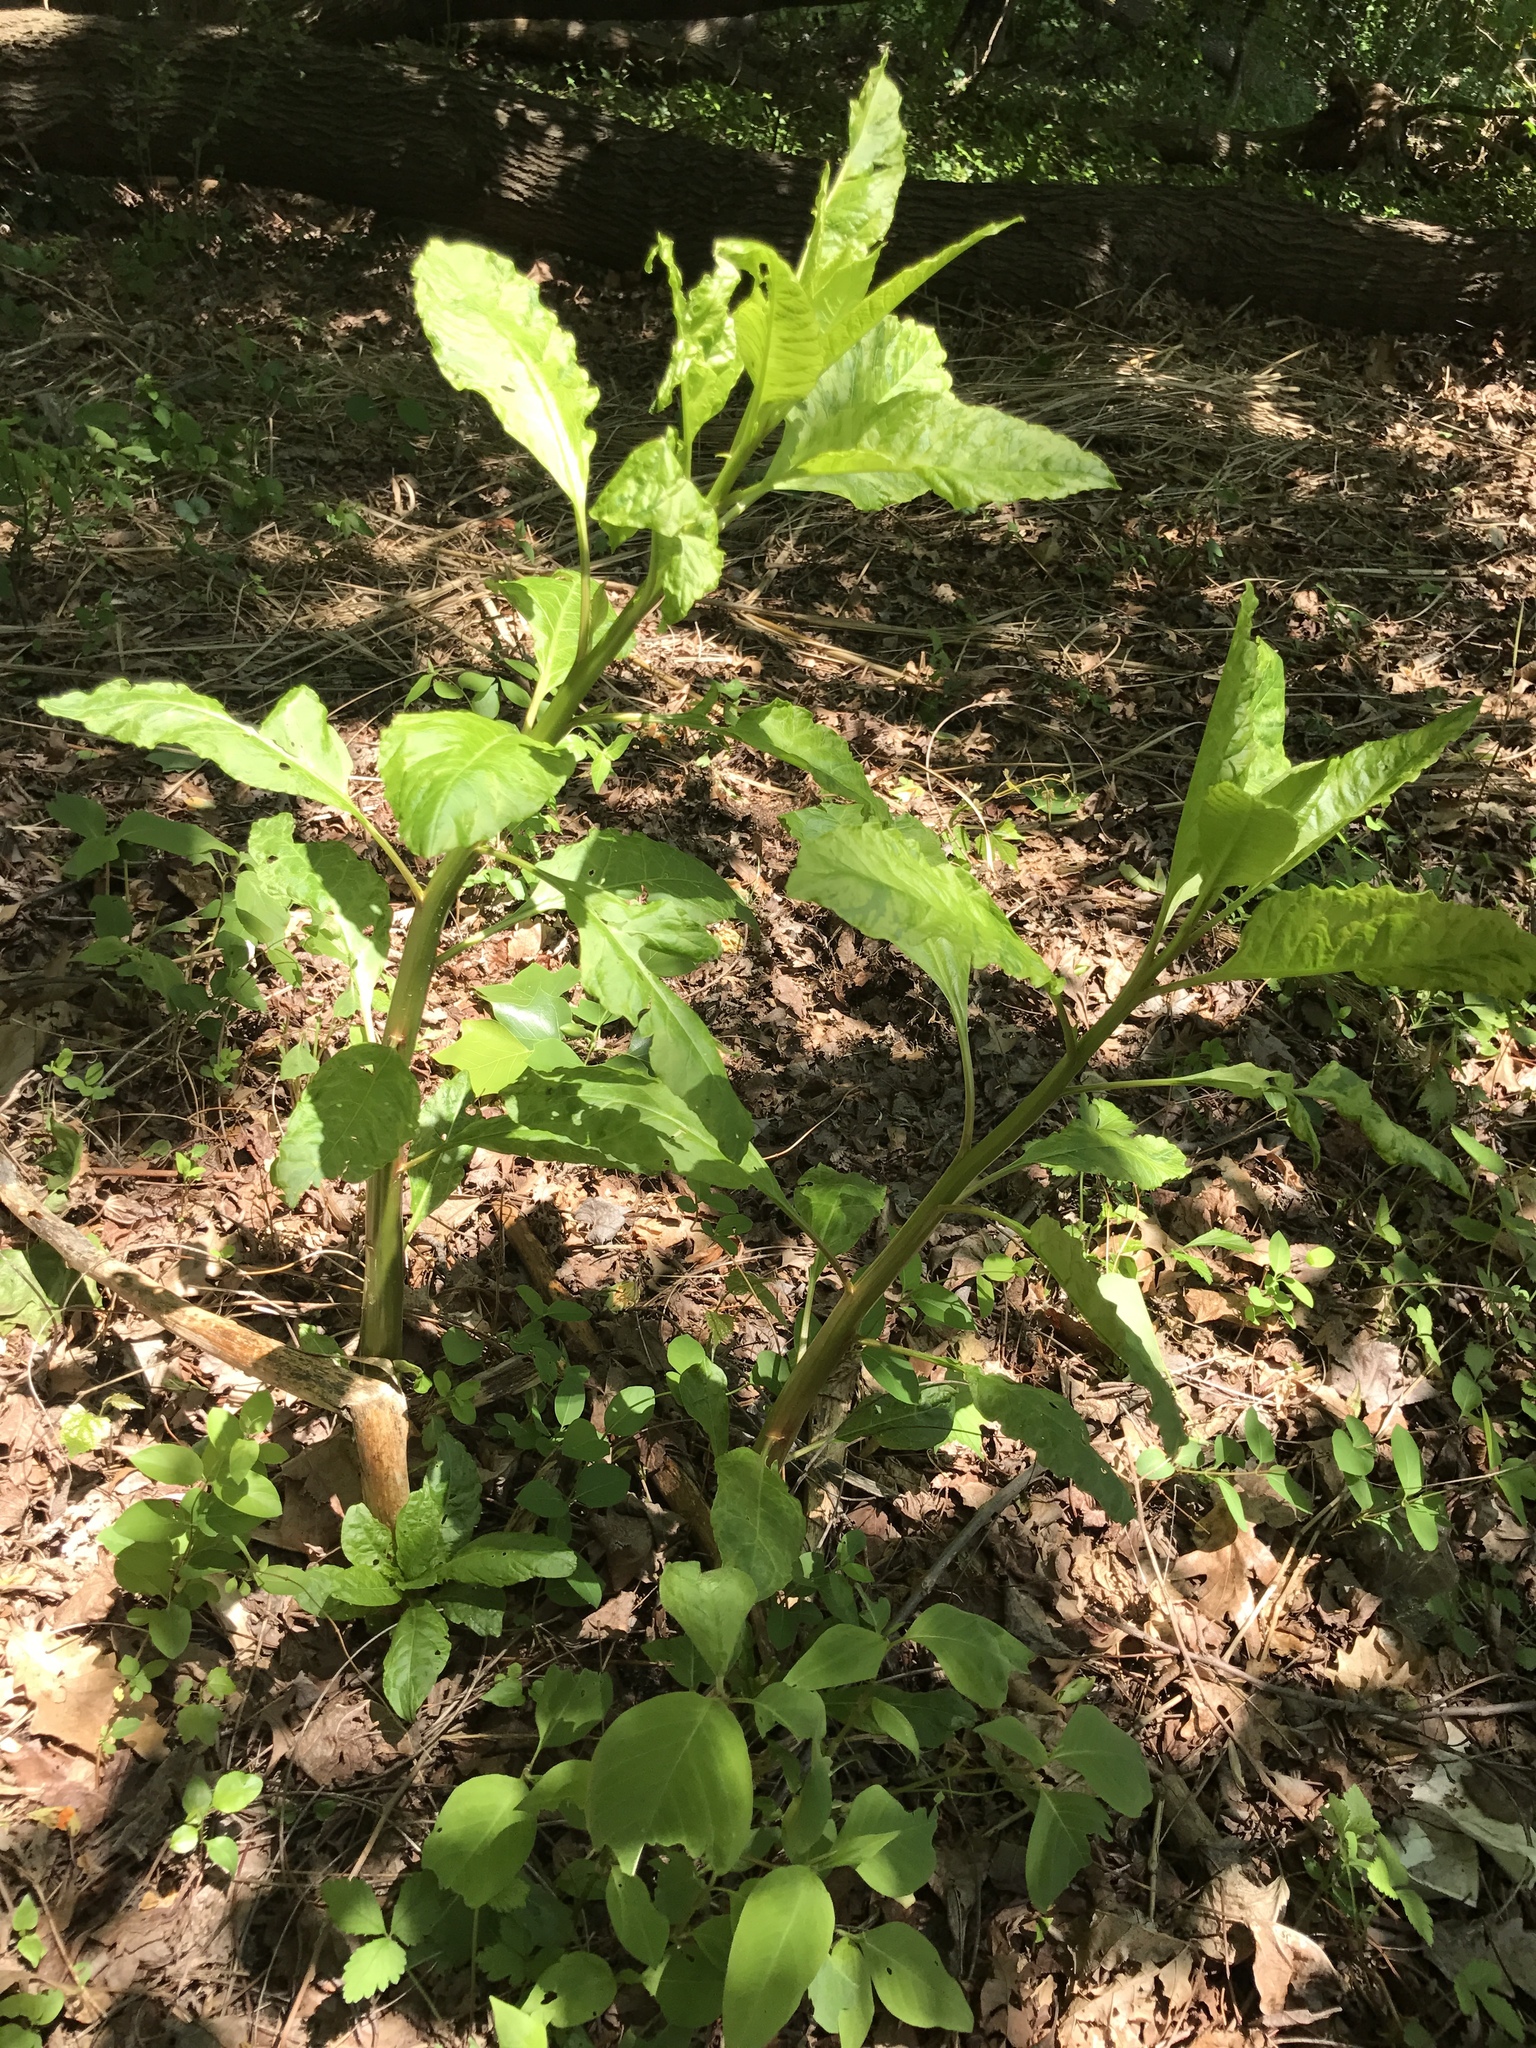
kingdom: Plantae
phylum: Tracheophyta
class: Magnoliopsida
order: Caryophyllales
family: Phytolaccaceae
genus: Phytolacca
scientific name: Phytolacca americana
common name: American pokeweed
